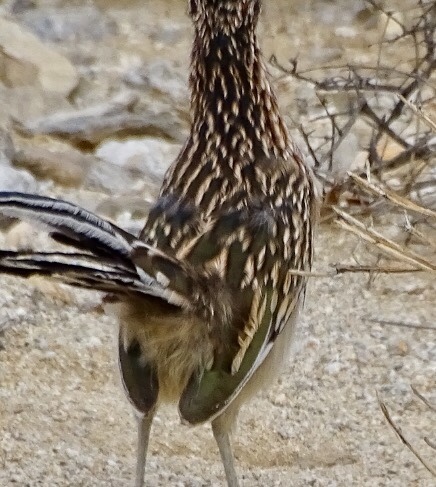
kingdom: Animalia
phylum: Chordata
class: Aves
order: Cuculiformes
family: Cuculidae
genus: Geococcyx
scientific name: Geococcyx californianus
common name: Greater roadrunner
